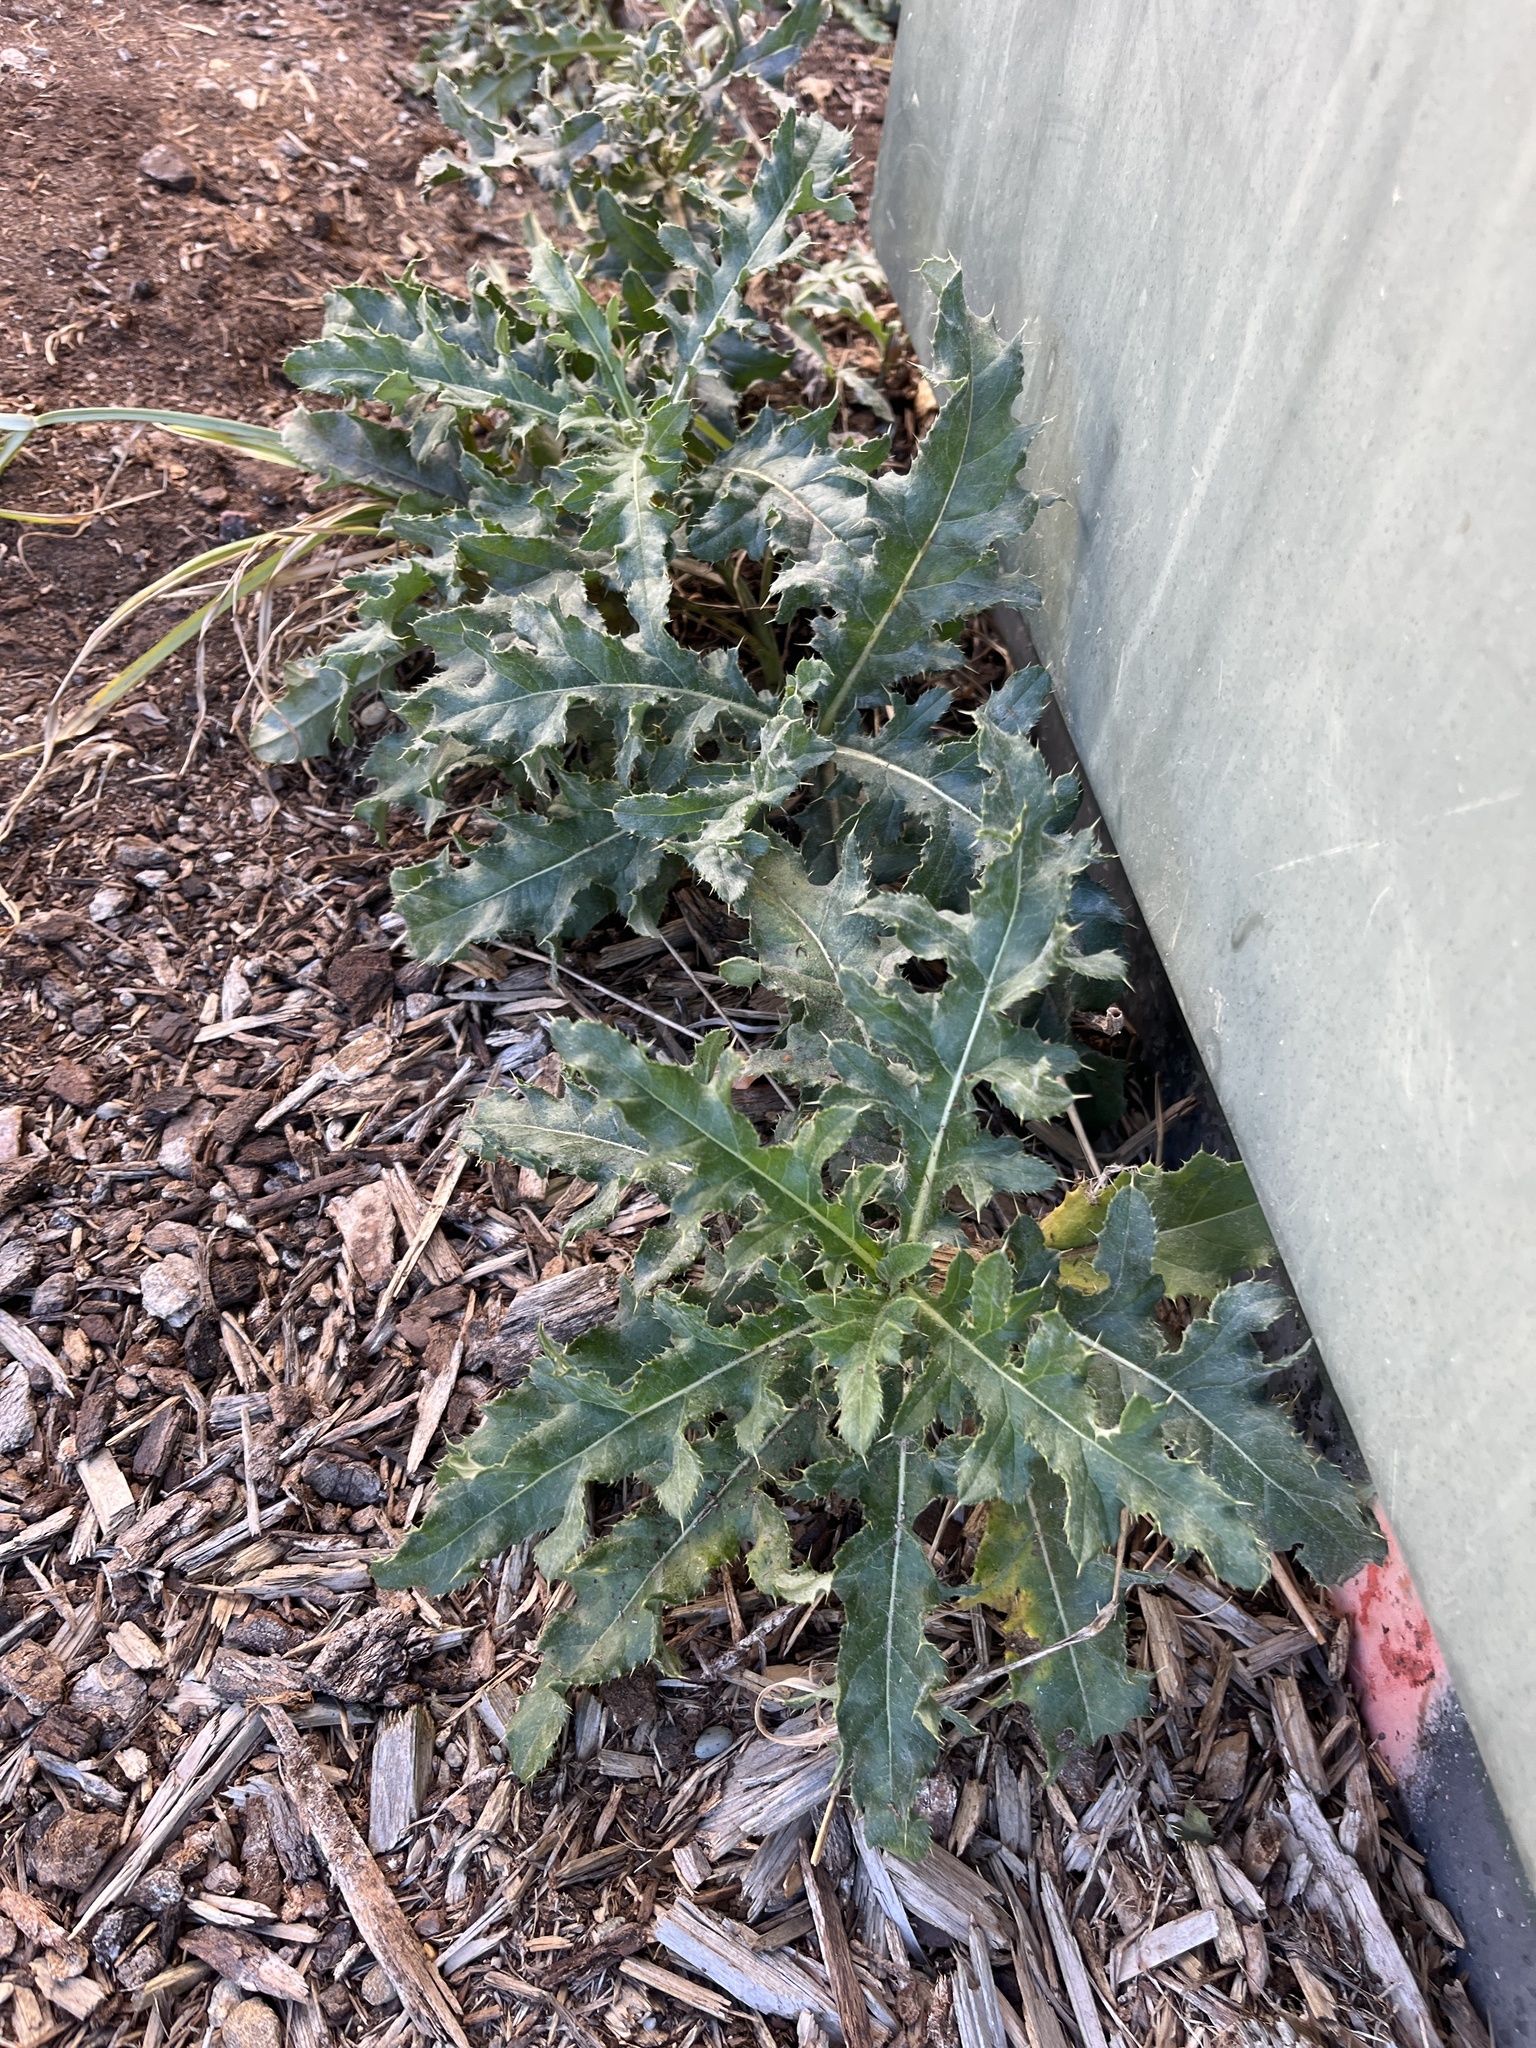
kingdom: Plantae
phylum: Tracheophyta
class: Magnoliopsida
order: Asterales
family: Asteraceae
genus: Cirsium
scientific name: Cirsium arvense
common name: Creeping thistle
